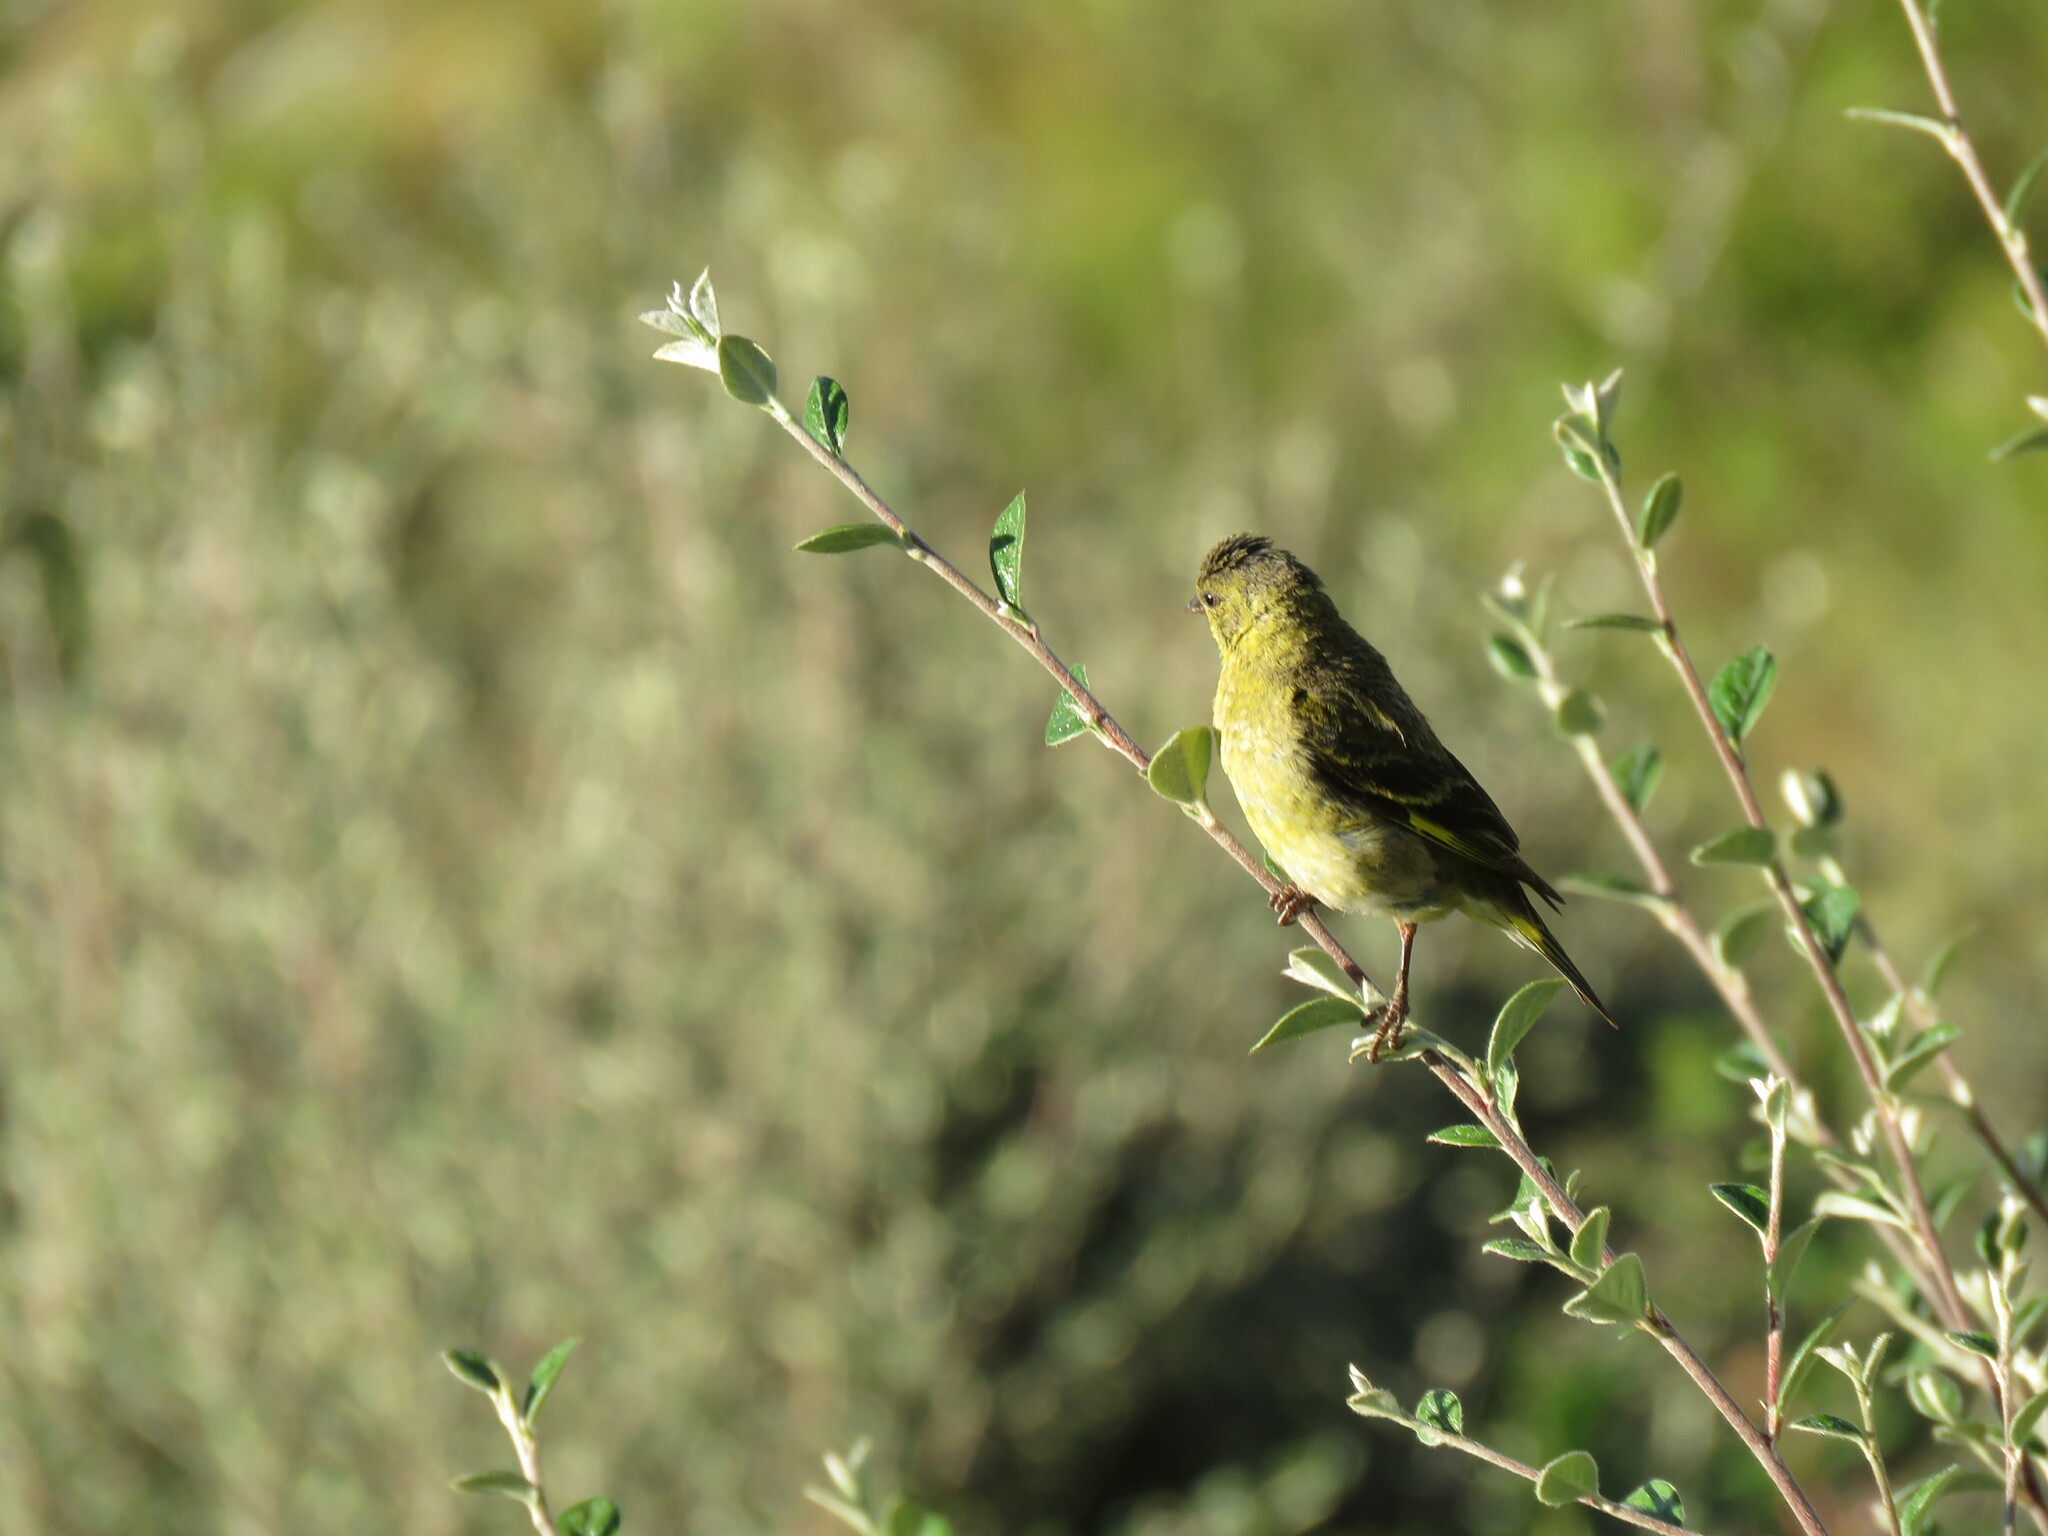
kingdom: Animalia
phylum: Chordata
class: Aves
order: Passeriformes
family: Fringillidae
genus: Spinus
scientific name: Spinus magellanicus
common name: Hooded siskin
